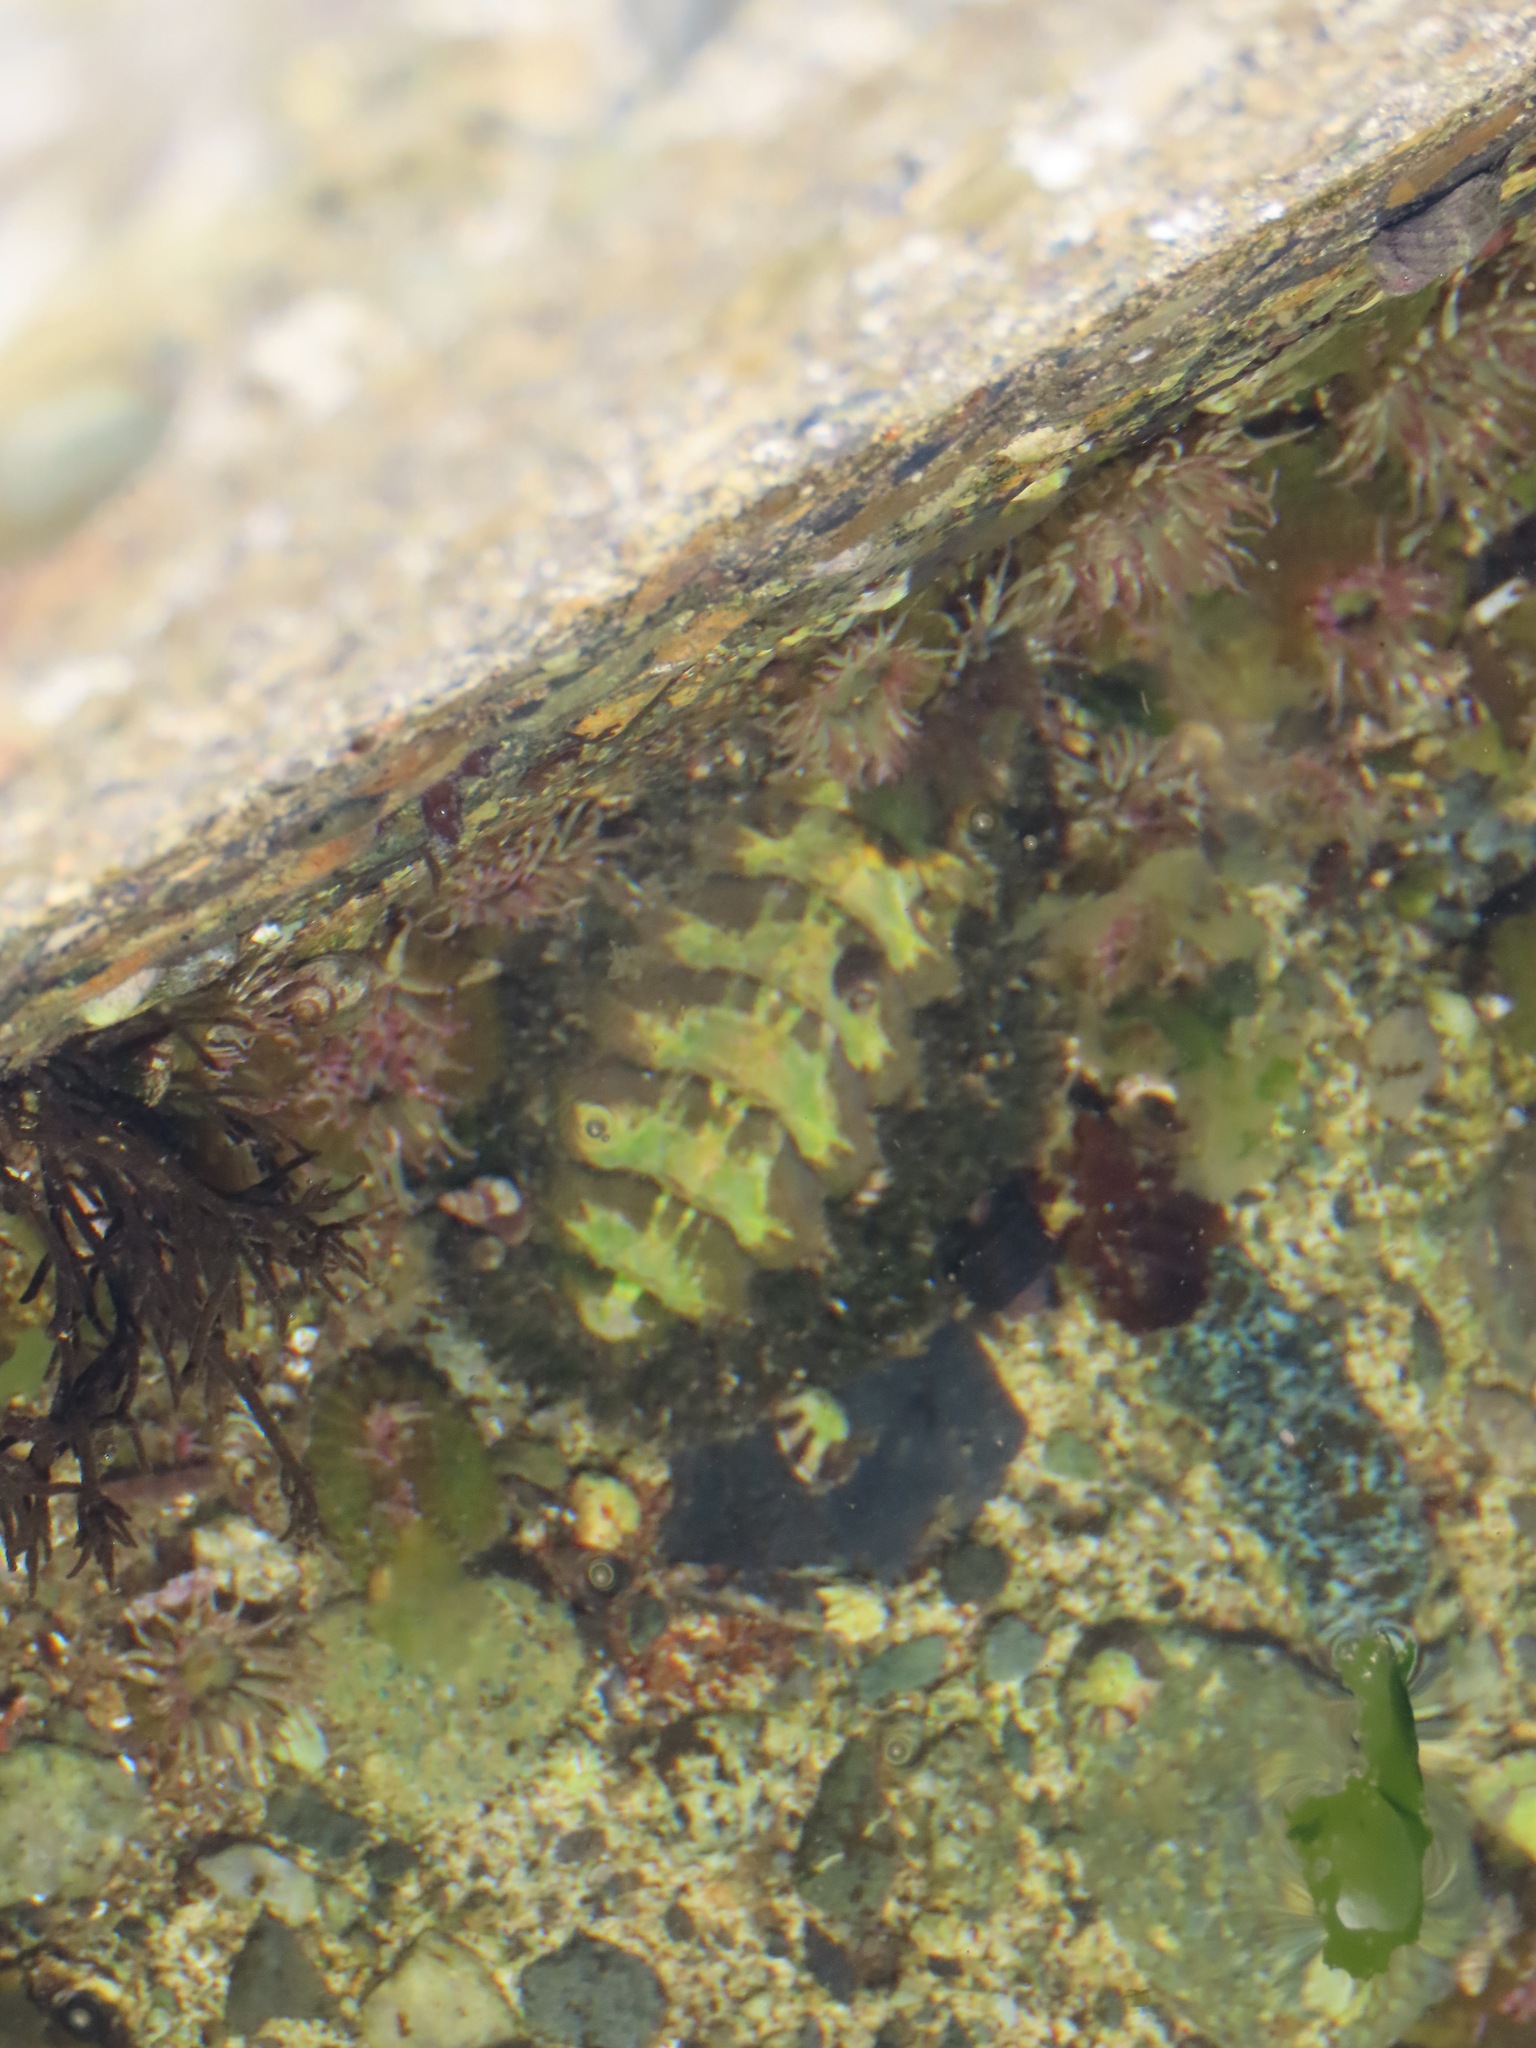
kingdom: Animalia
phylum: Mollusca
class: Polyplacophora
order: Chitonida
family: Mopaliidae
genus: Mopalia
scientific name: Mopalia muscosa
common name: Mossy chiton
